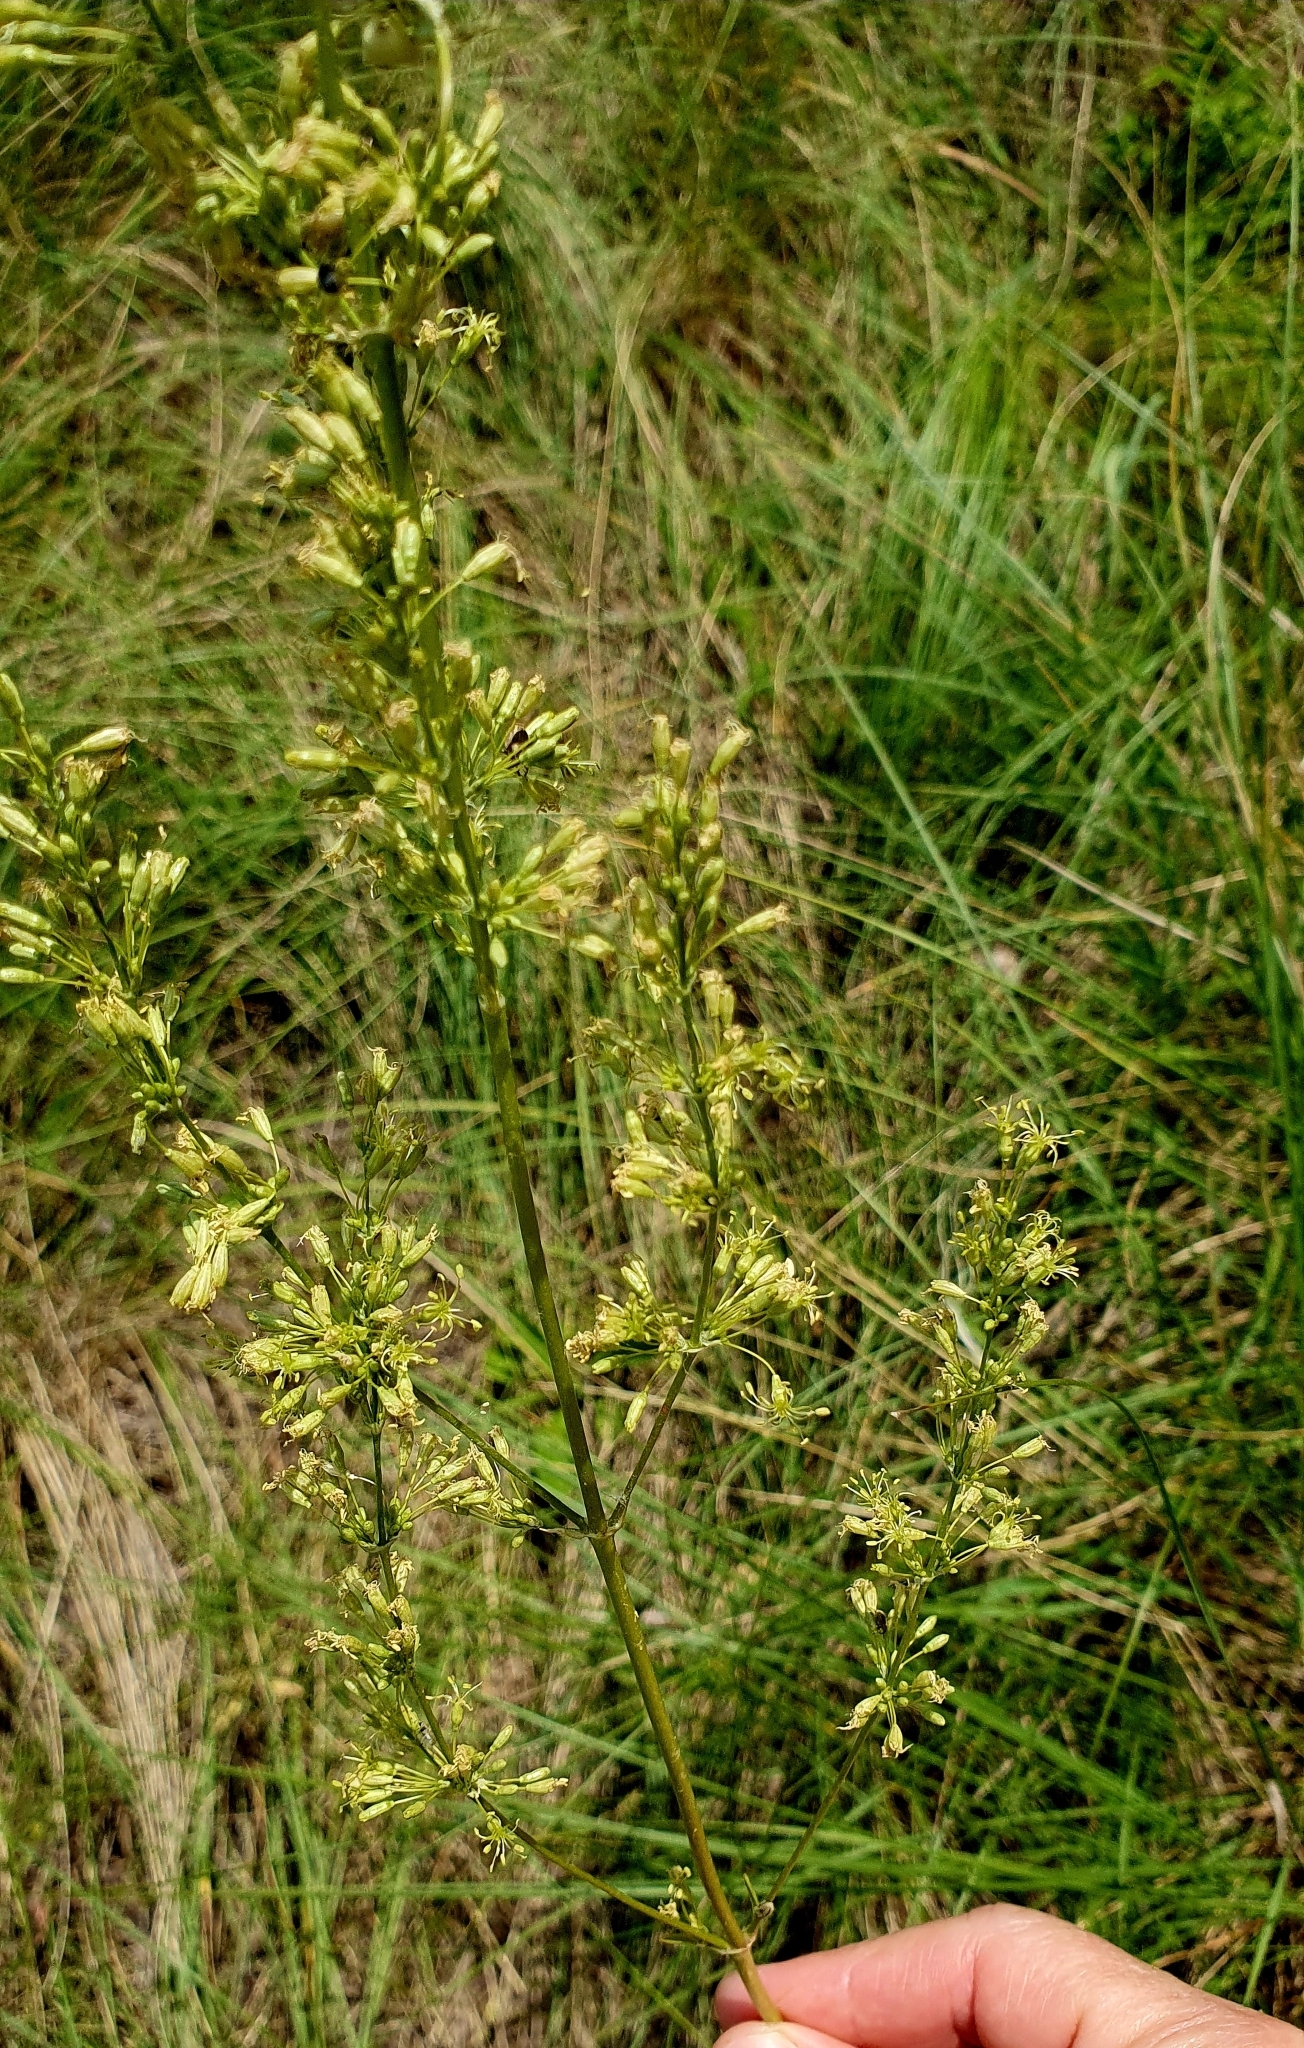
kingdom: Plantae
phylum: Tracheophyta
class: Magnoliopsida
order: Caryophyllales
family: Caryophyllaceae
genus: Silene
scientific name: Silene chersonensis
